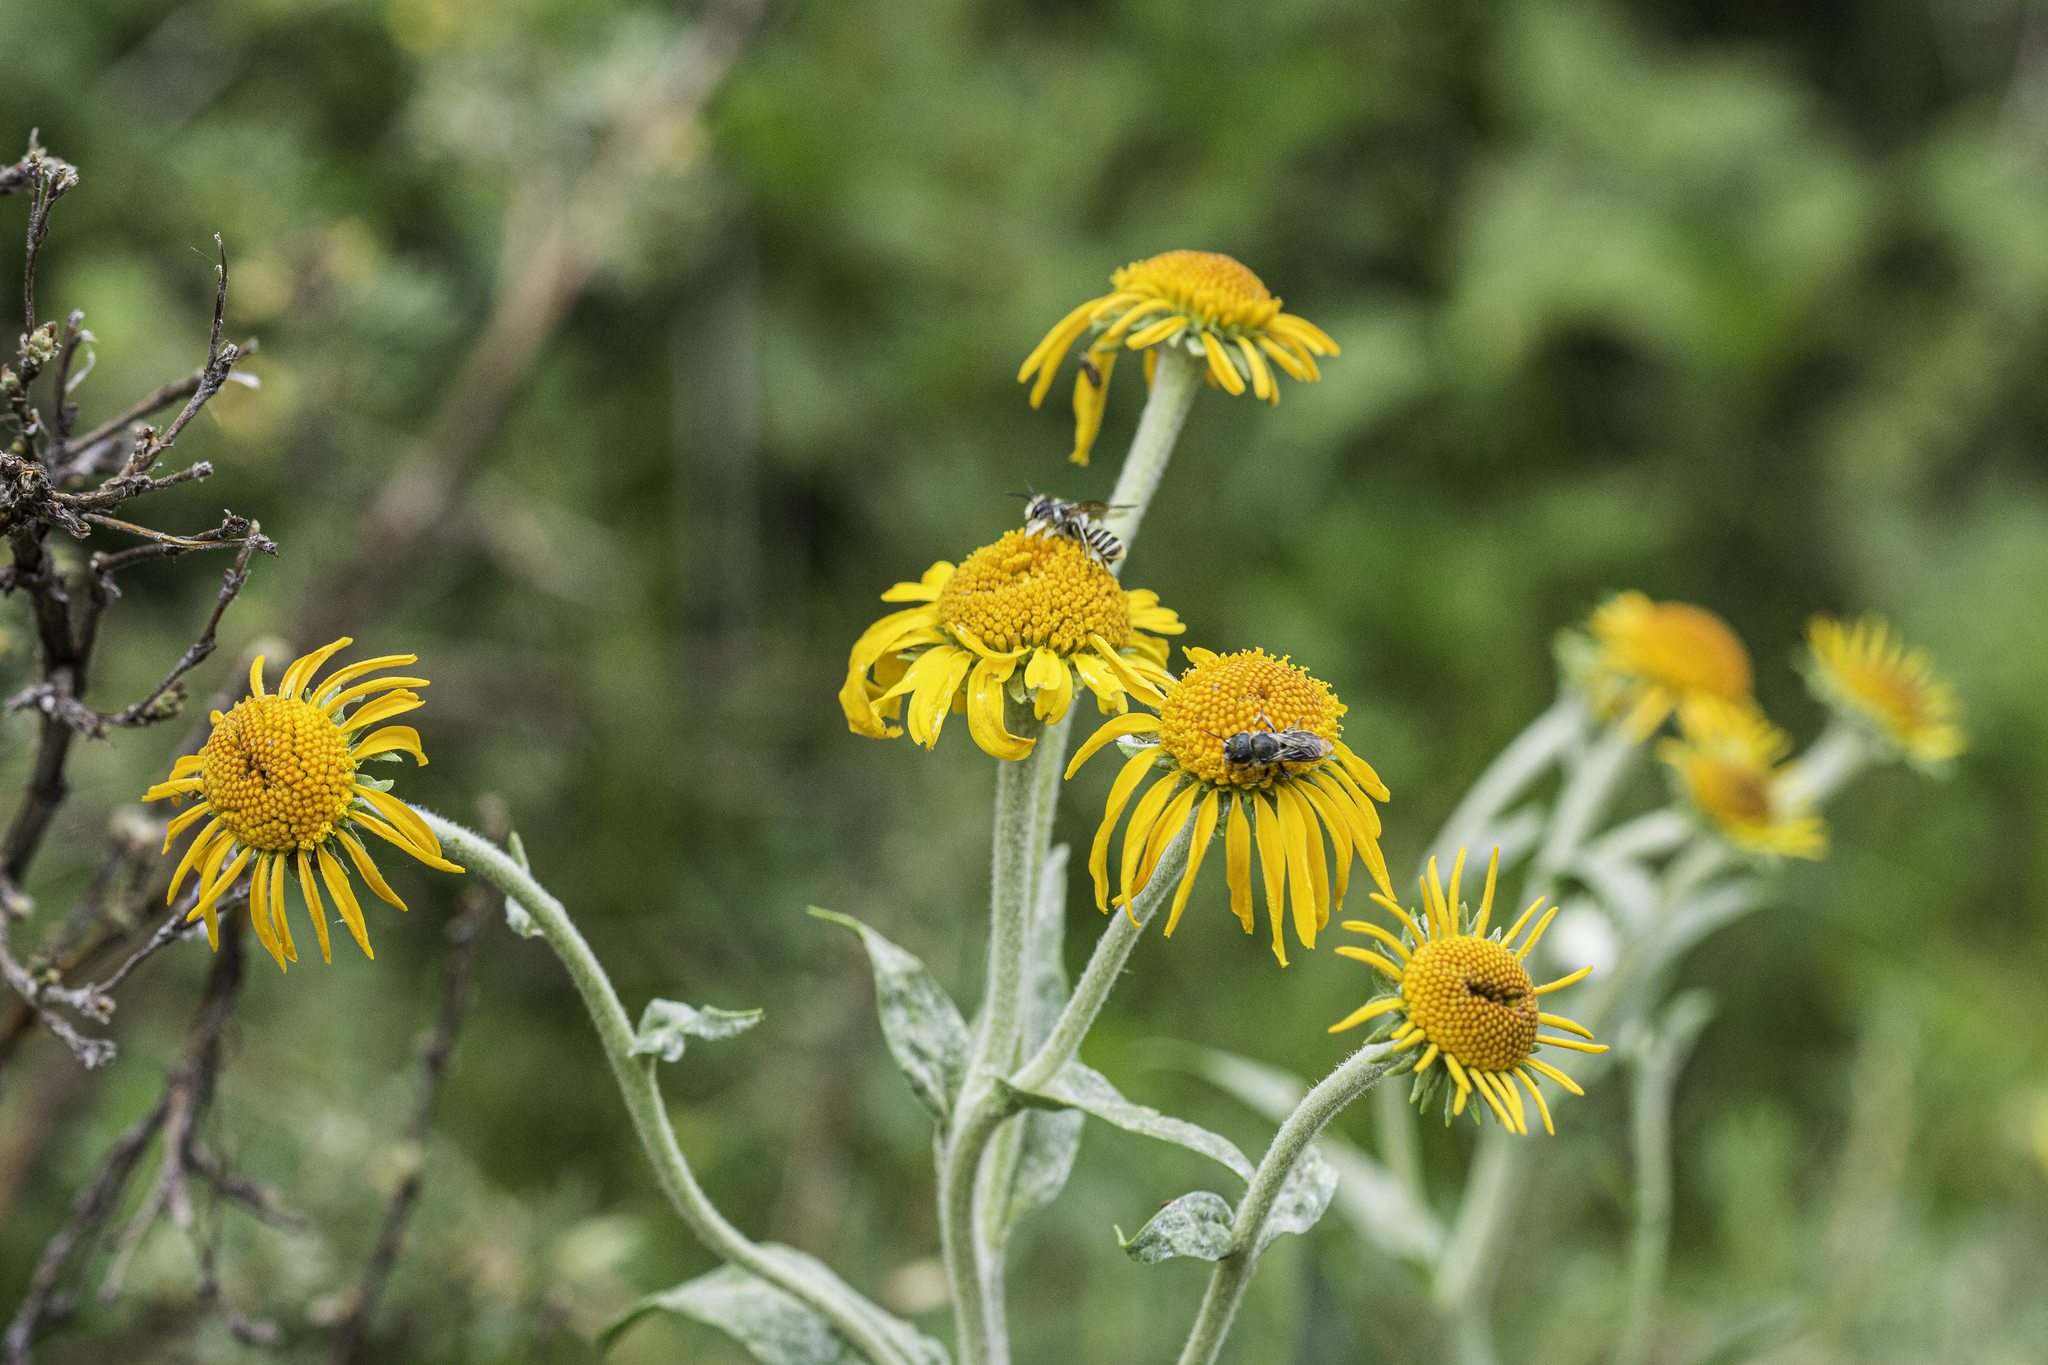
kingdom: Plantae
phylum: Tracheophyta
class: Magnoliopsida
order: Asterales
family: Asteraceae
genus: Hymenoxys
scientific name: Hymenoxys hoopesii
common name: Orange-sneezeweed
